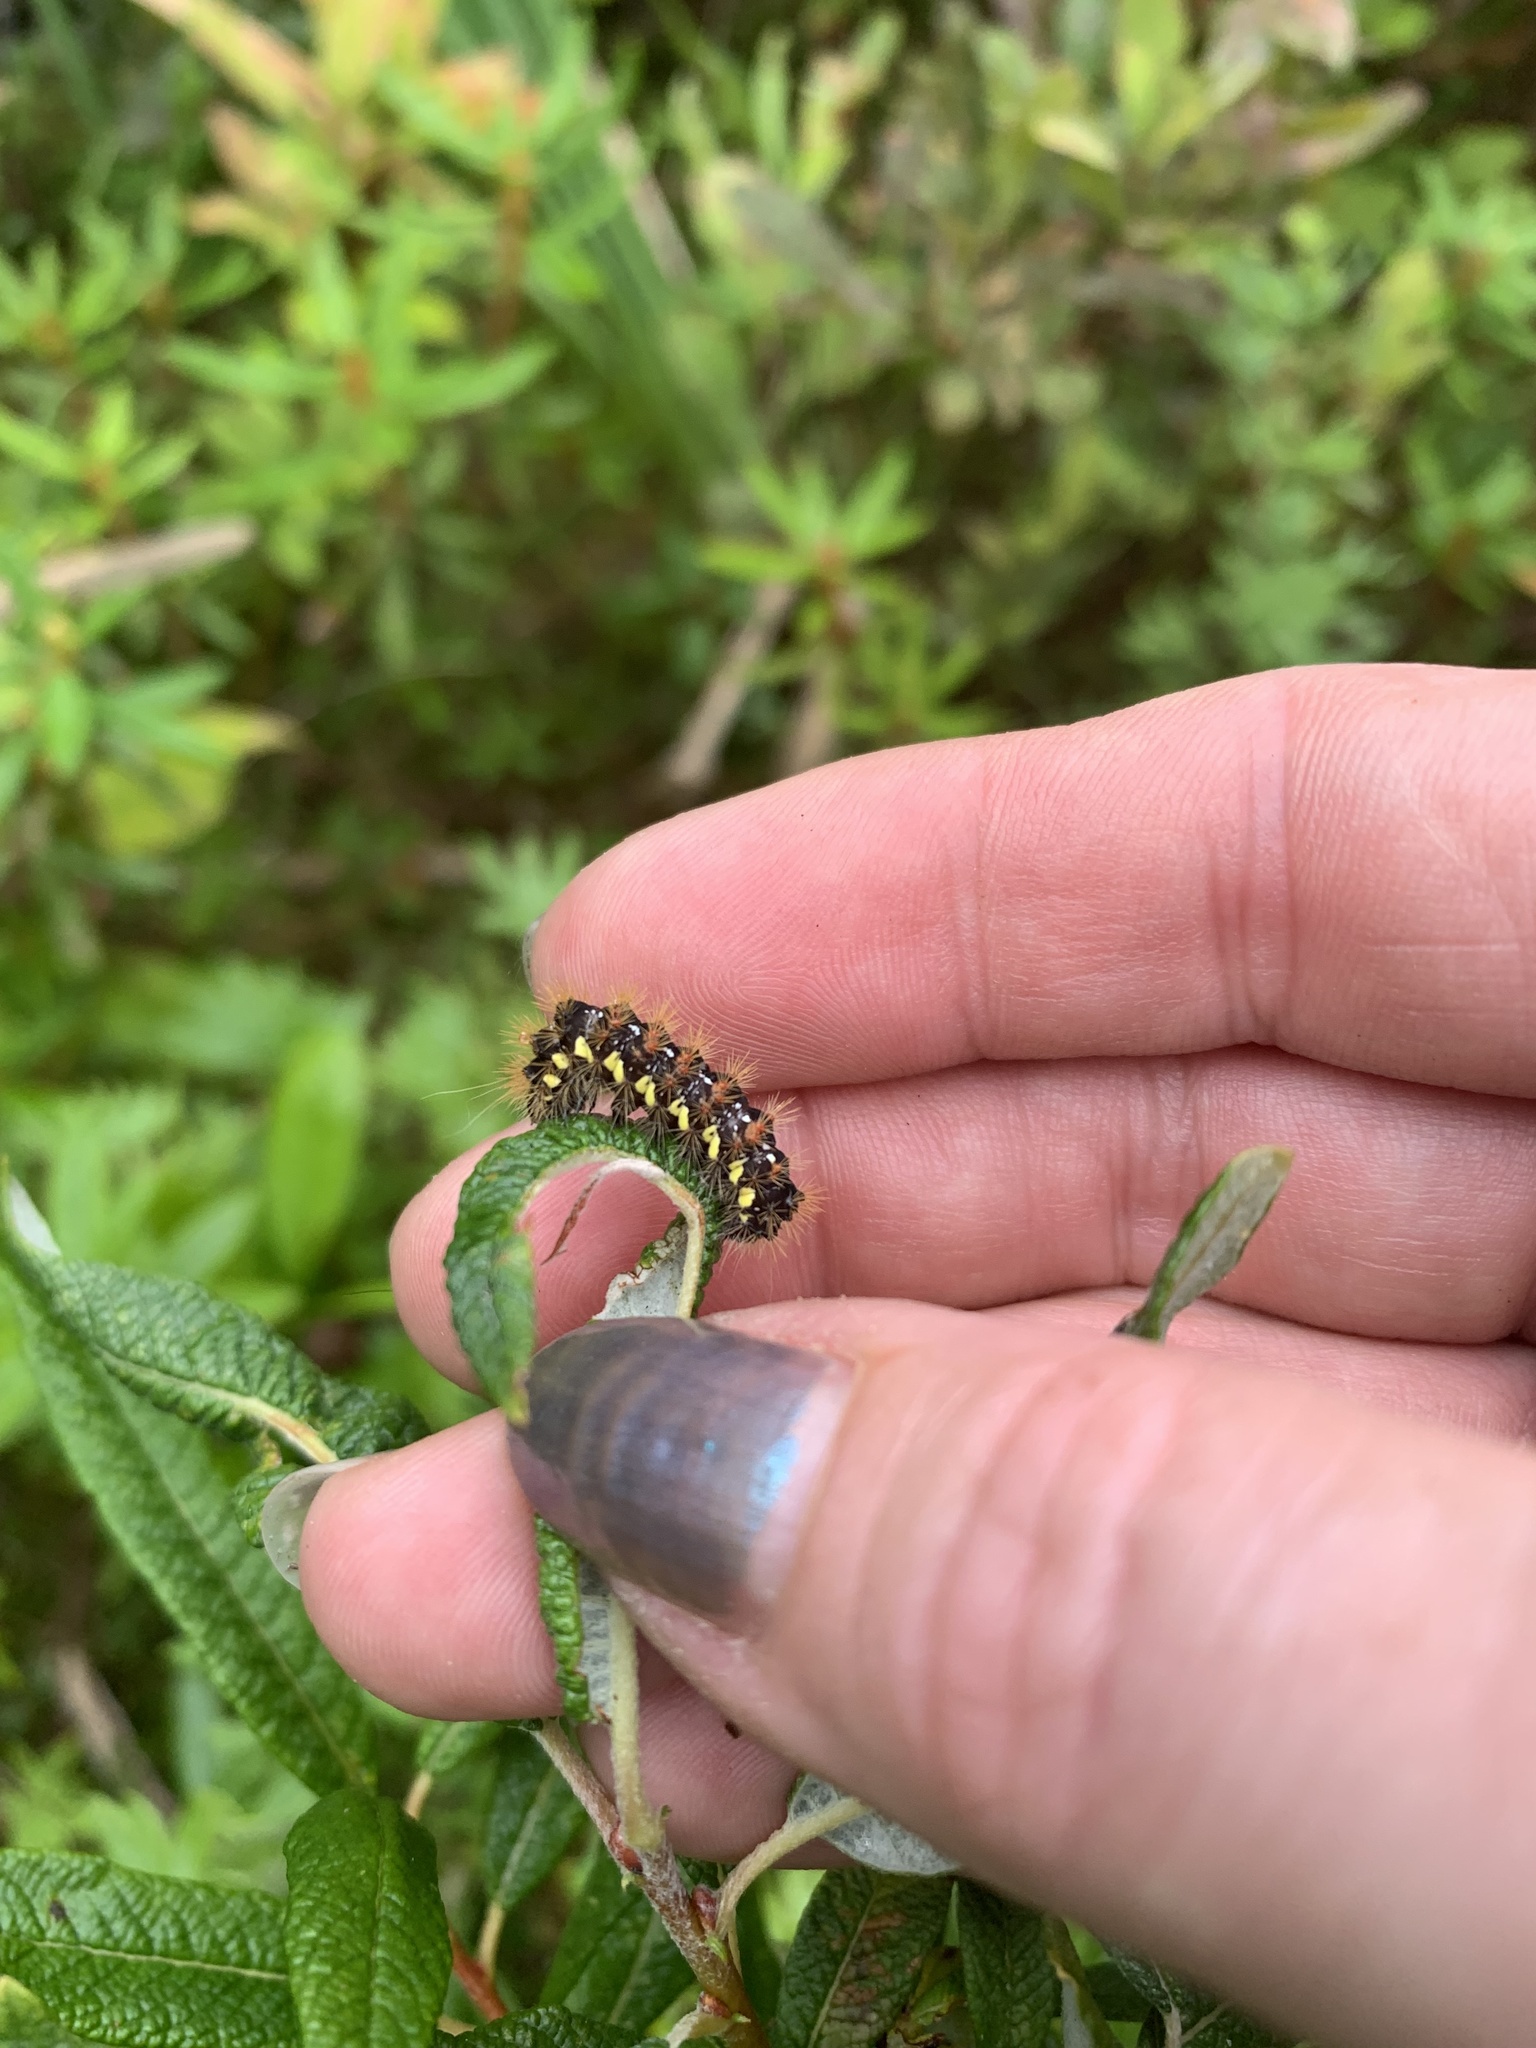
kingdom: Animalia
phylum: Arthropoda
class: Insecta
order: Lepidoptera
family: Noctuidae
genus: Acronicta
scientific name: Acronicta oblinita
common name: Smeared dagger
